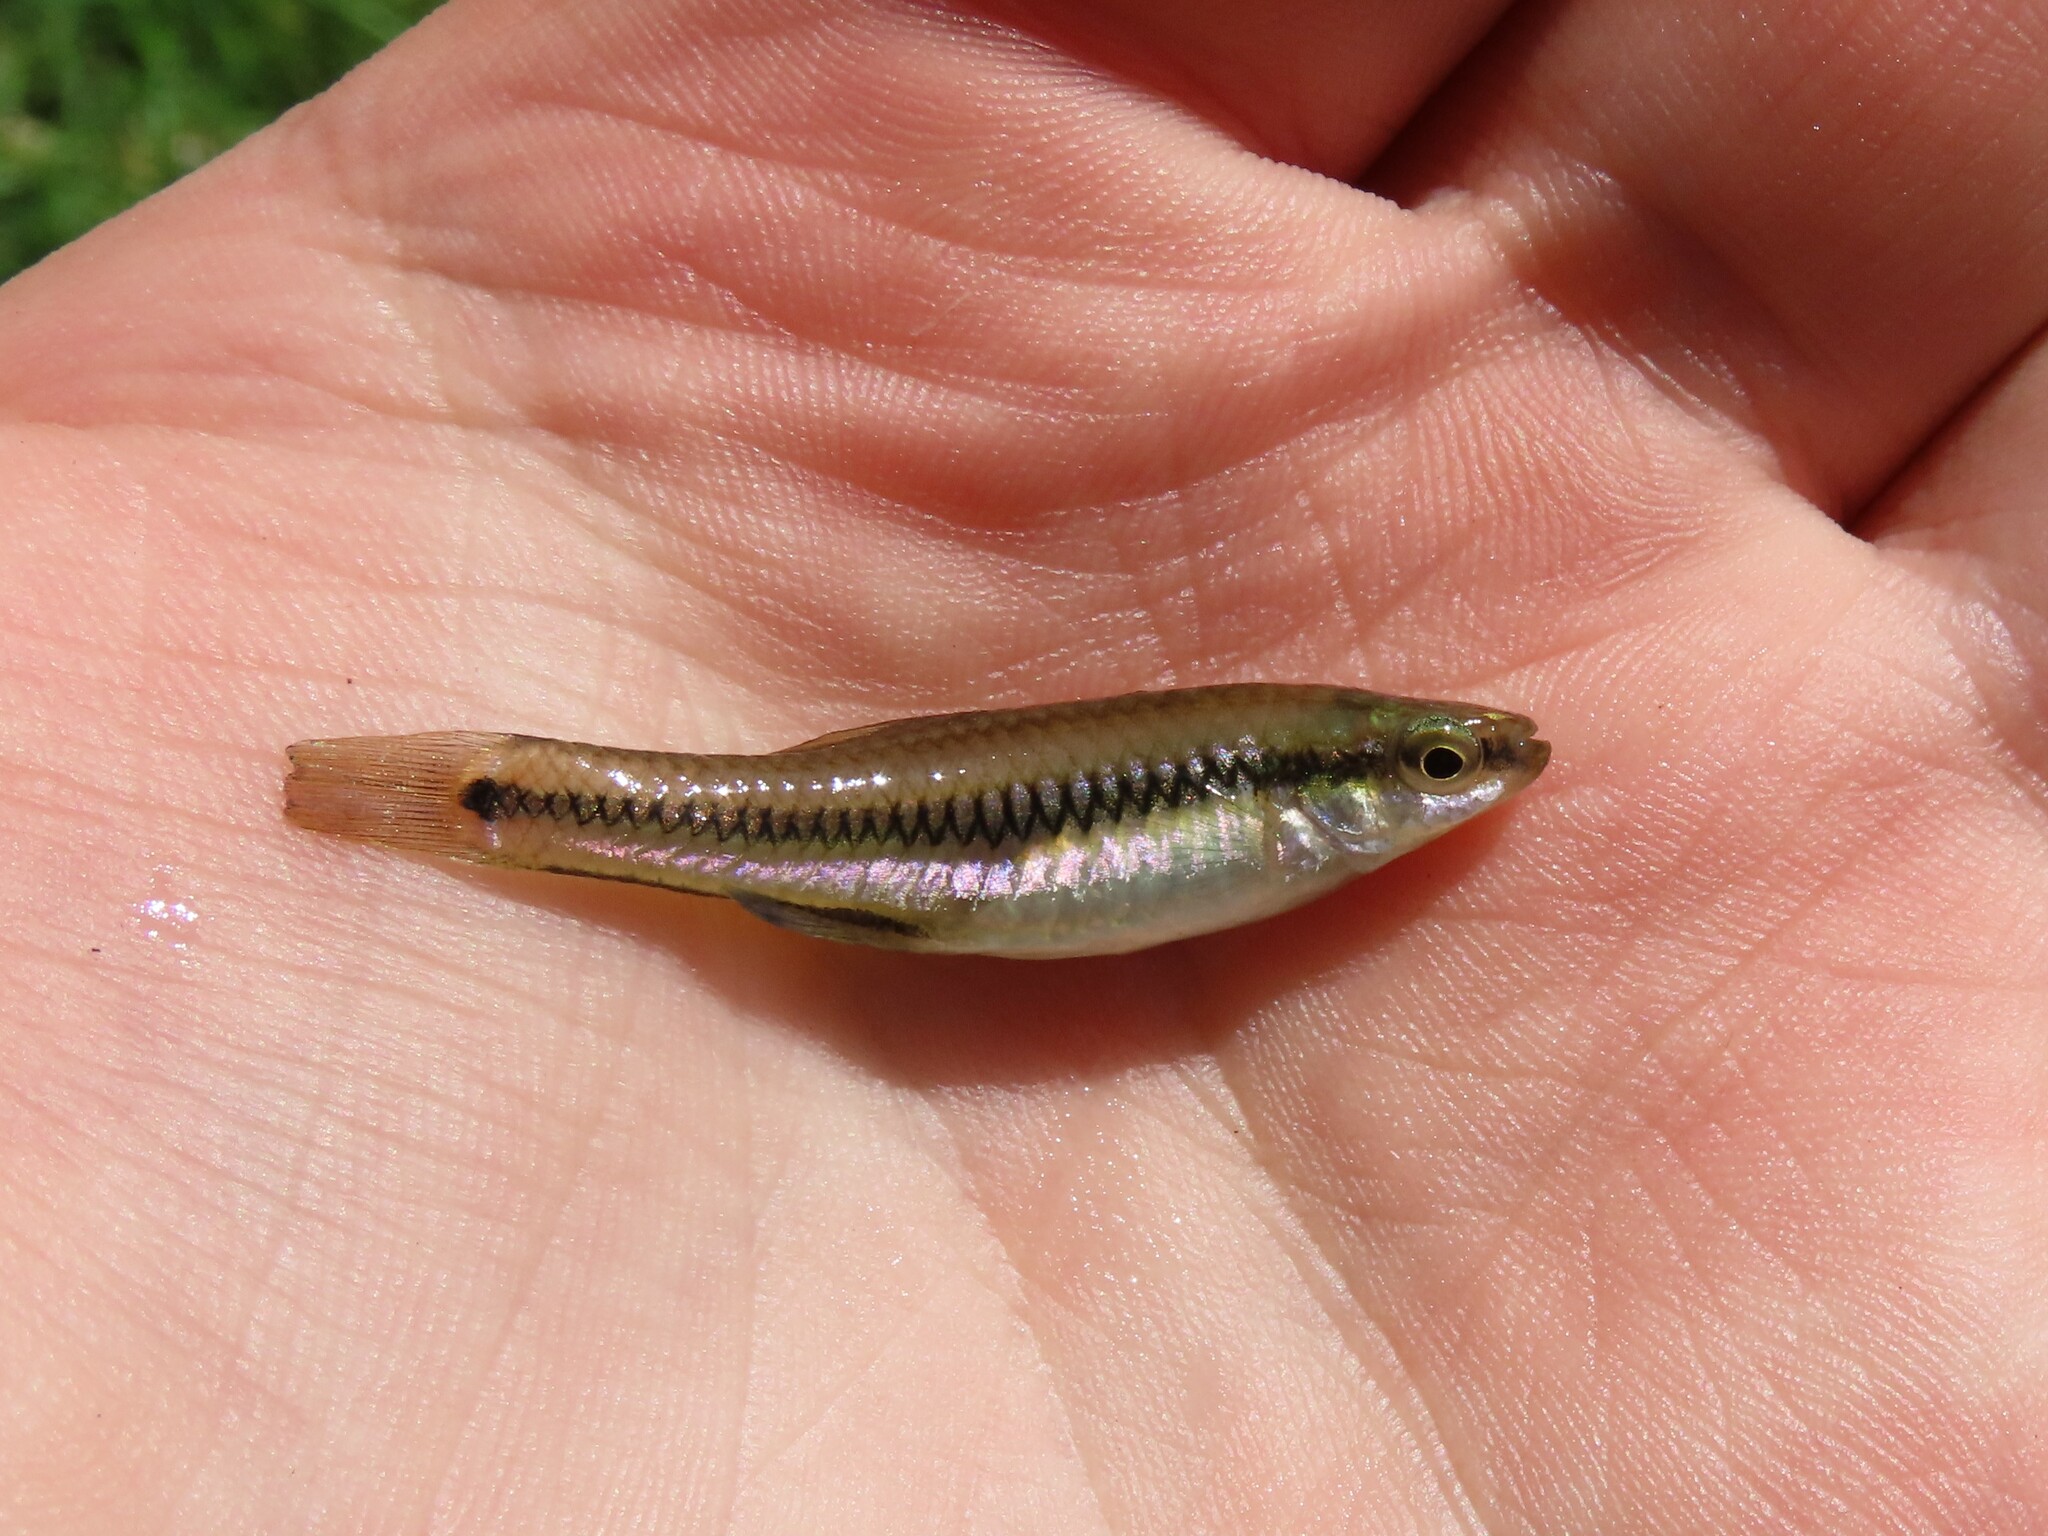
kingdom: Animalia
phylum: Chordata
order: Cyprinodontiformes
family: Fundulidae
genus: Lucania
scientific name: Lucania goodei
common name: Bluefin killifish
